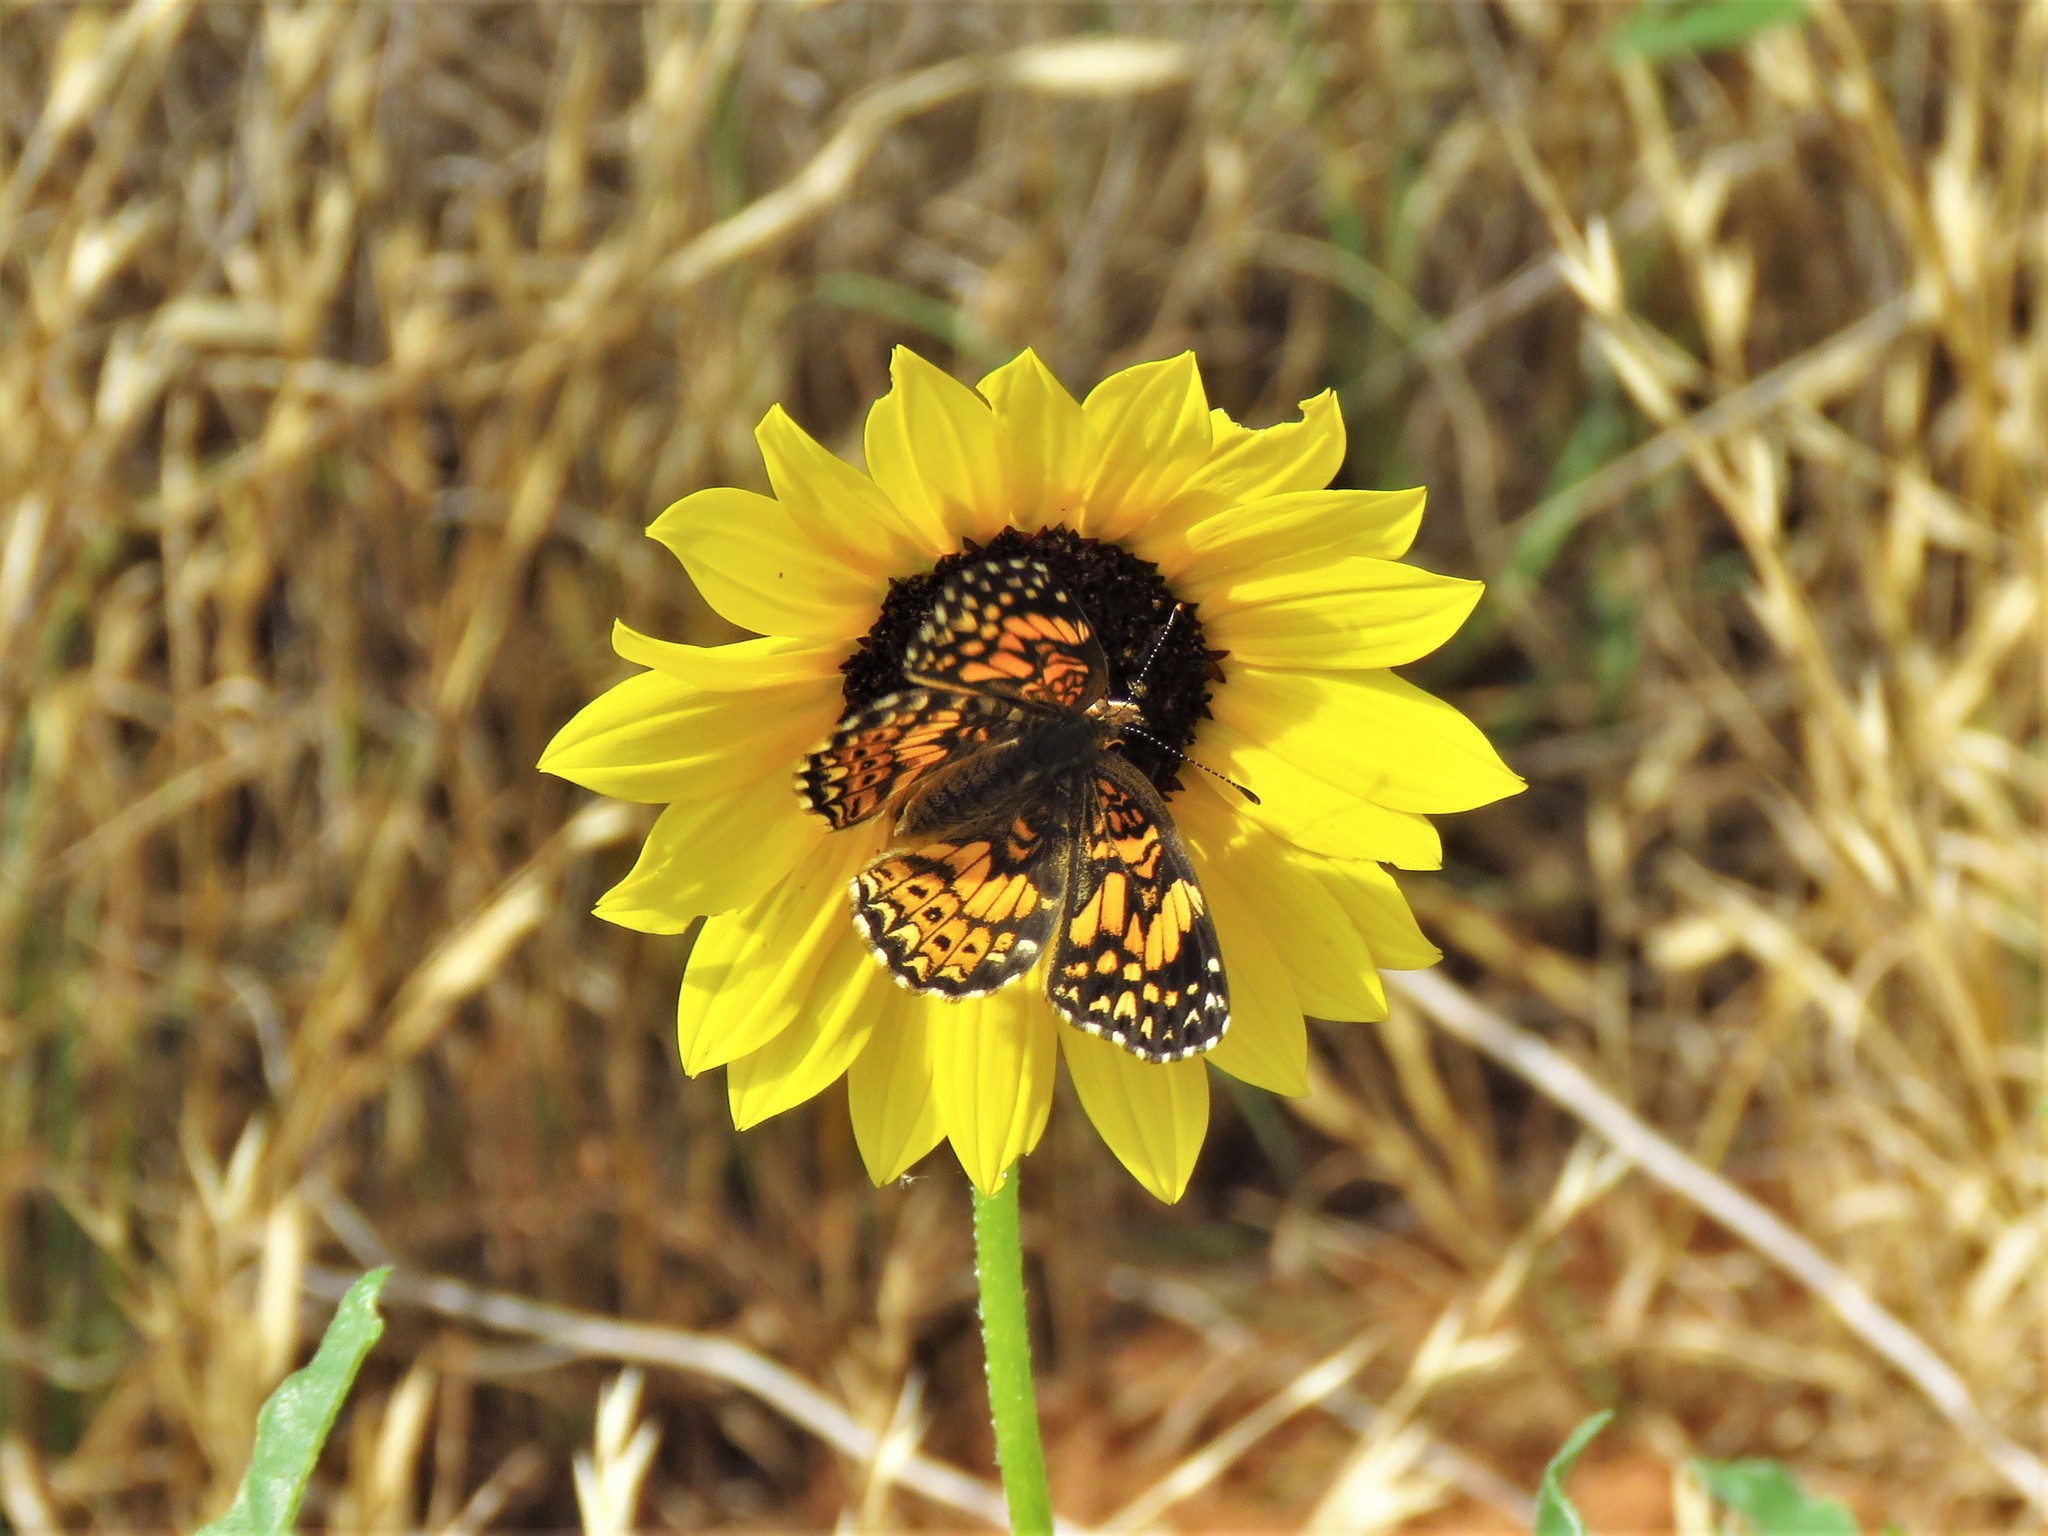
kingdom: Animalia
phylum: Arthropoda
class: Insecta
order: Lepidoptera
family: Nymphalidae
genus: Chlosyne
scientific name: Chlosyne gorgone
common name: Gorgone checkerspot
